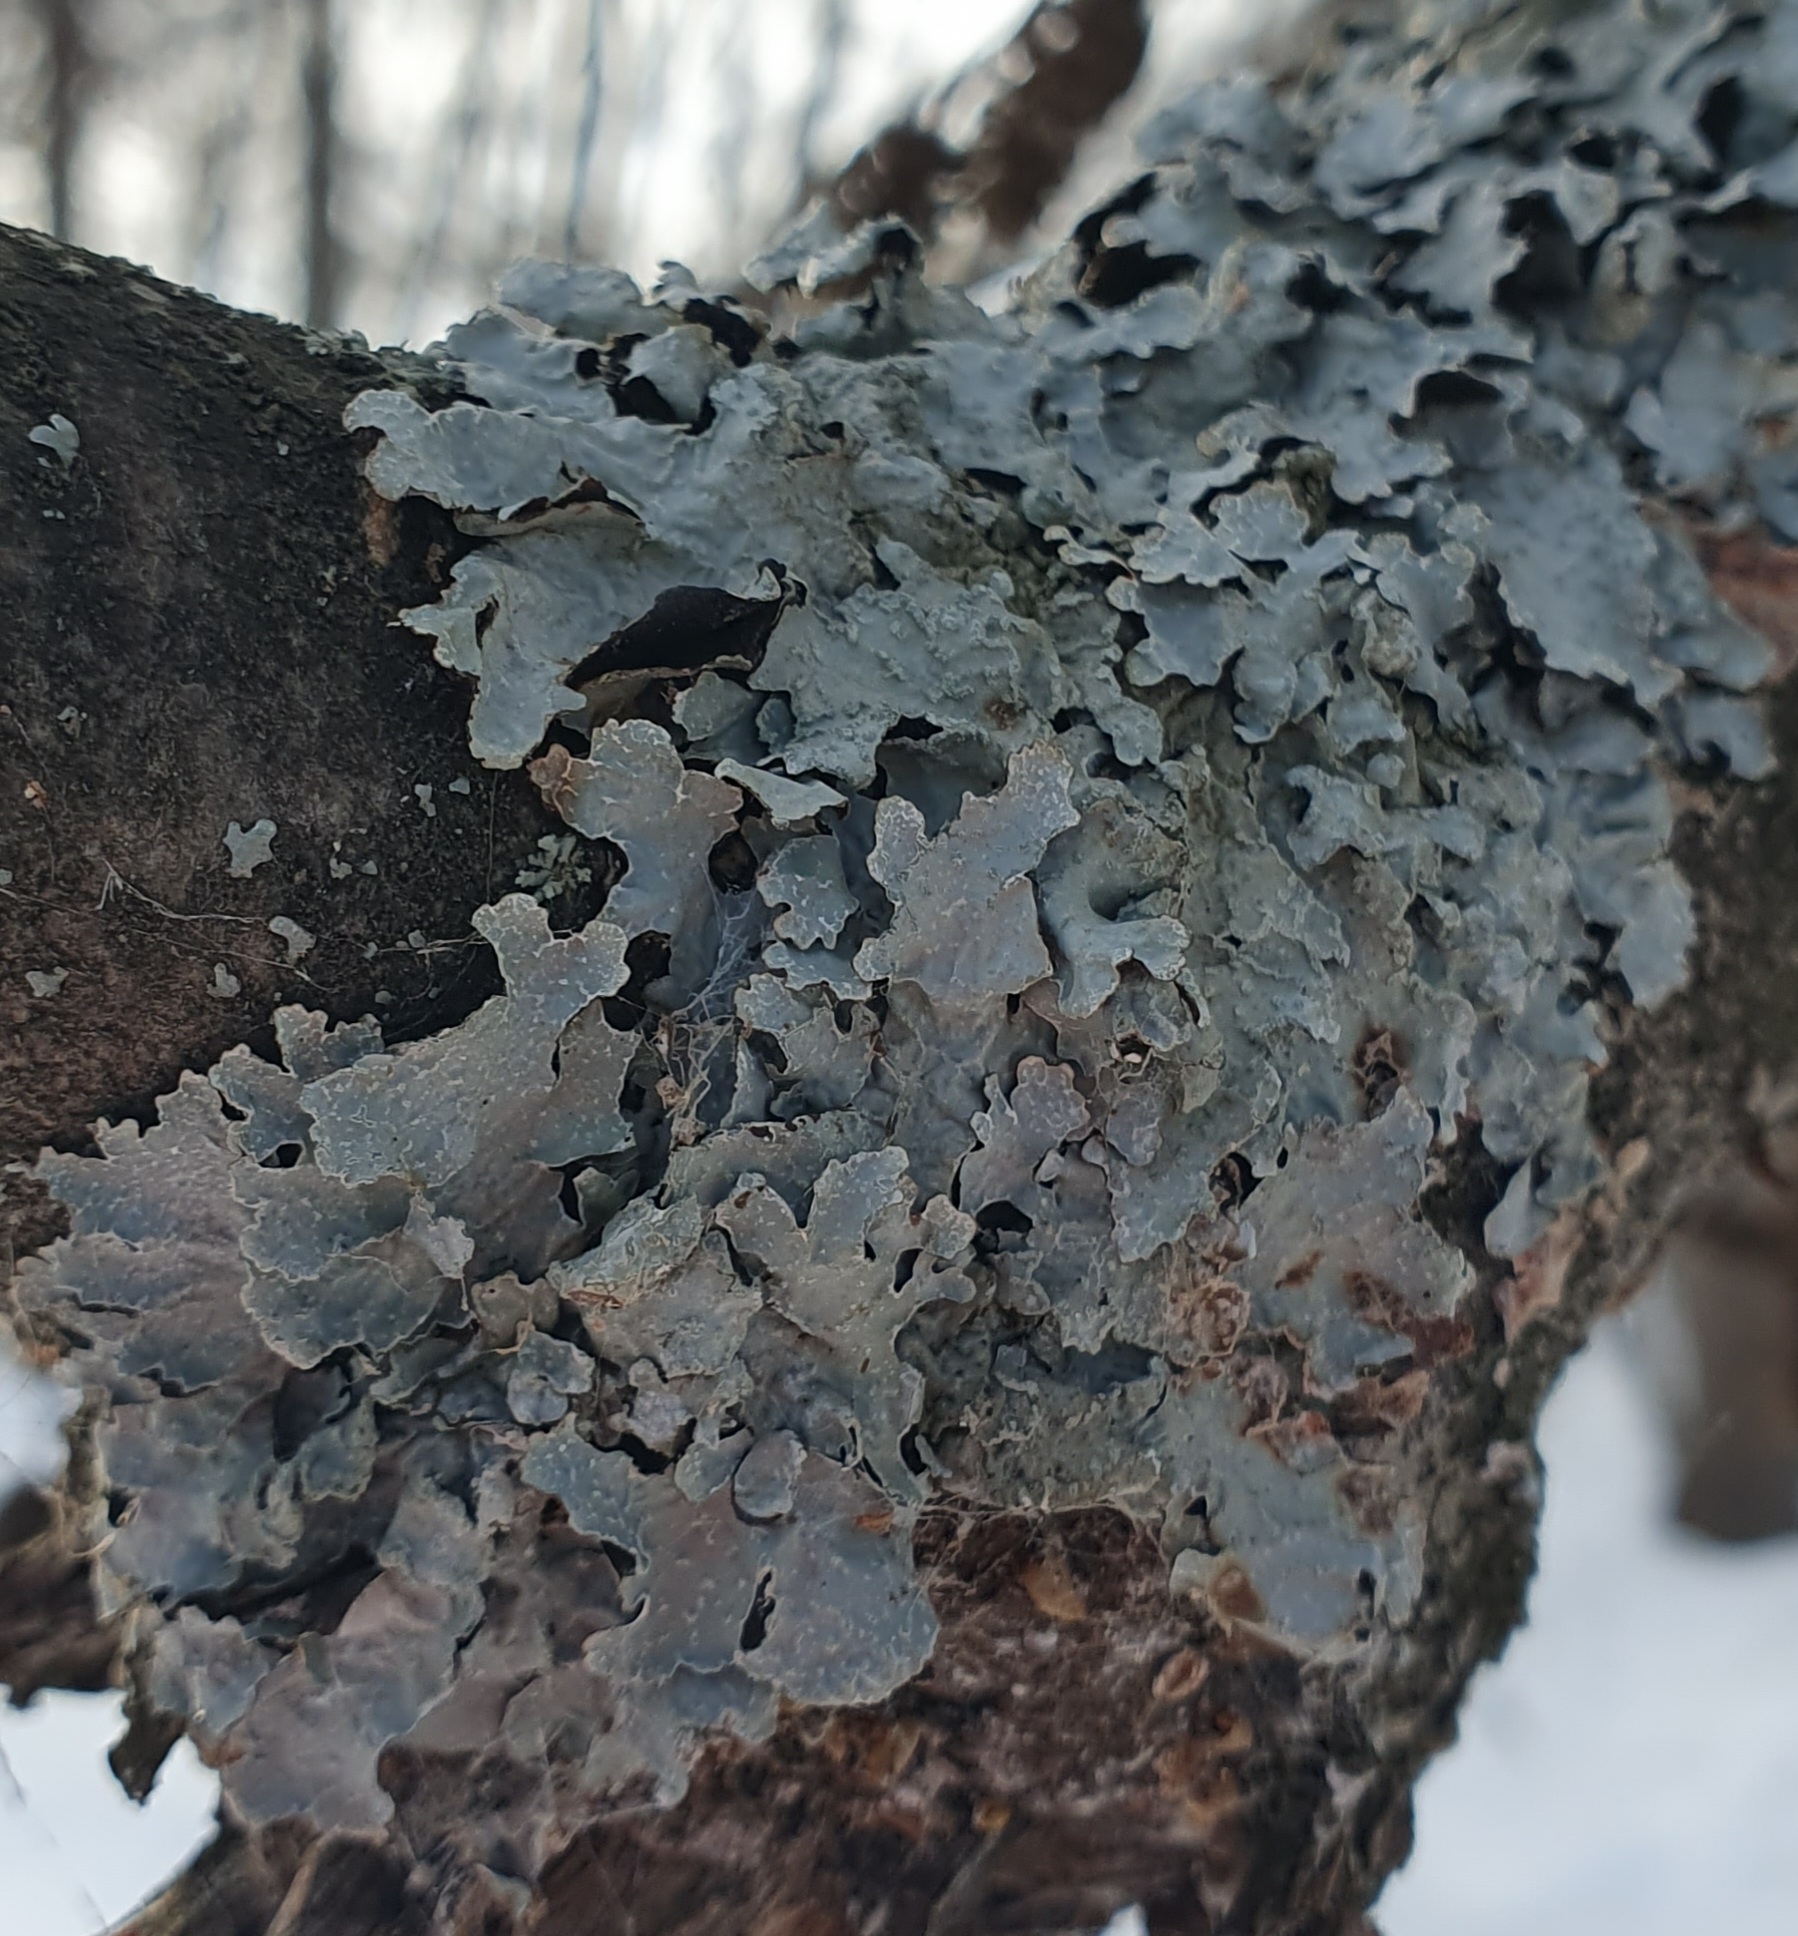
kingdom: Fungi
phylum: Ascomycota
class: Lecanoromycetes
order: Lecanorales
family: Parmeliaceae
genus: Parmelia
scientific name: Parmelia sulcata
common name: Netted shield lichen
